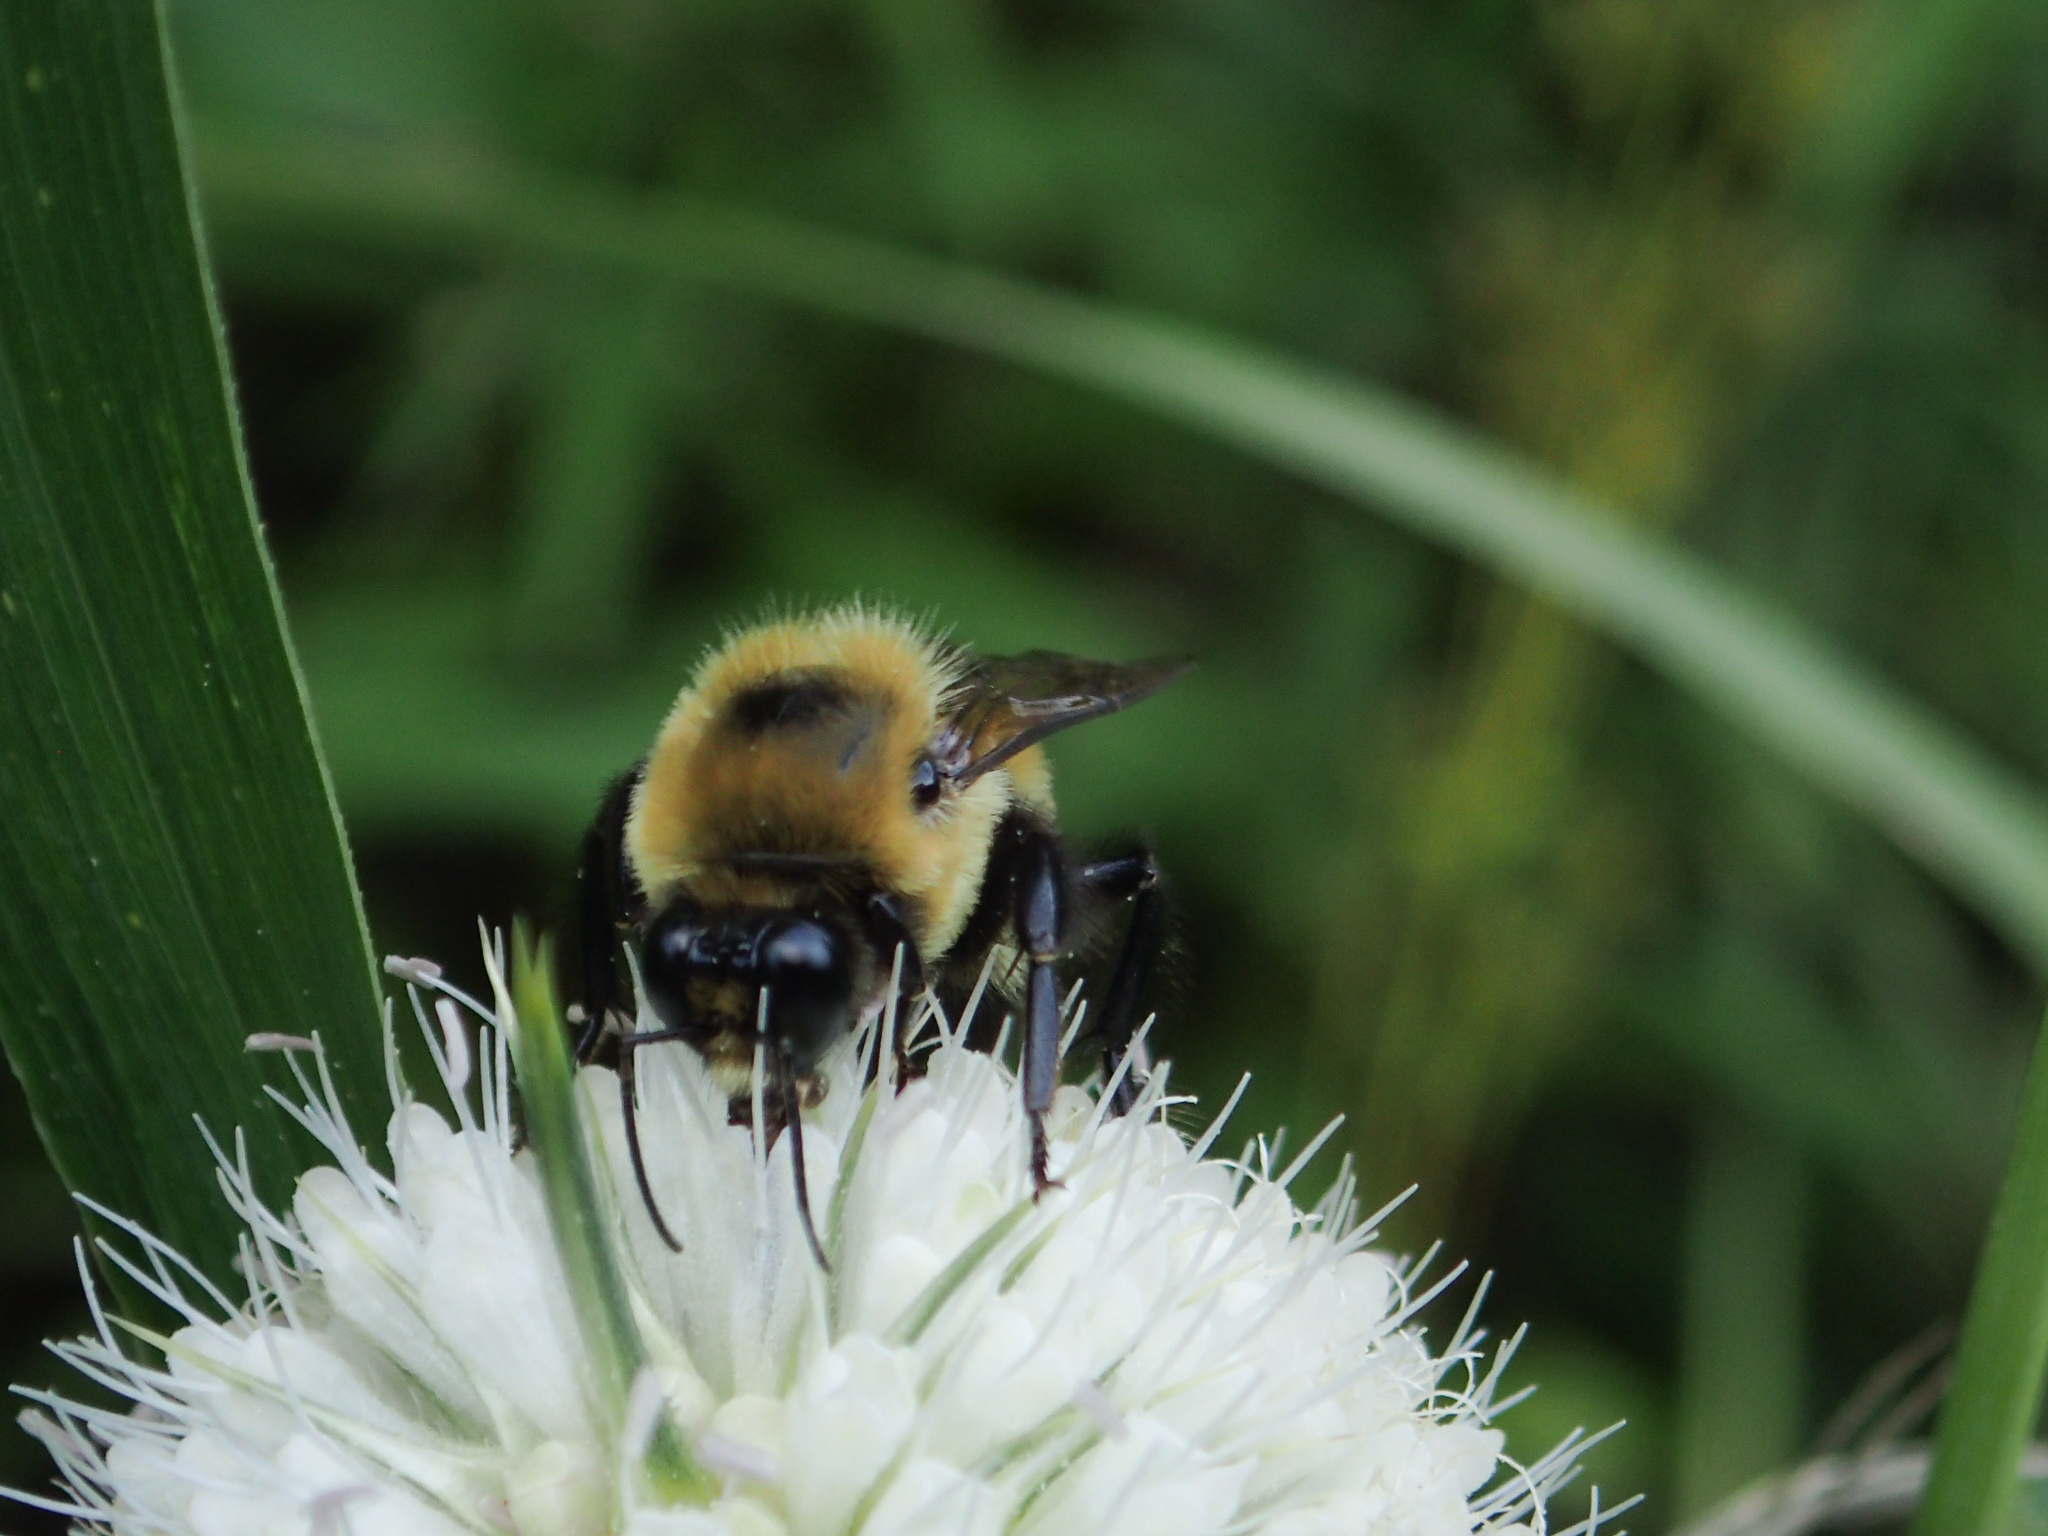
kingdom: Animalia
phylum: Arthropoda
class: Insecta
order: Hymenoptera
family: Apidae
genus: Bombus
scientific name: Bombus griseocollis
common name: Brown-belted bumble bee
